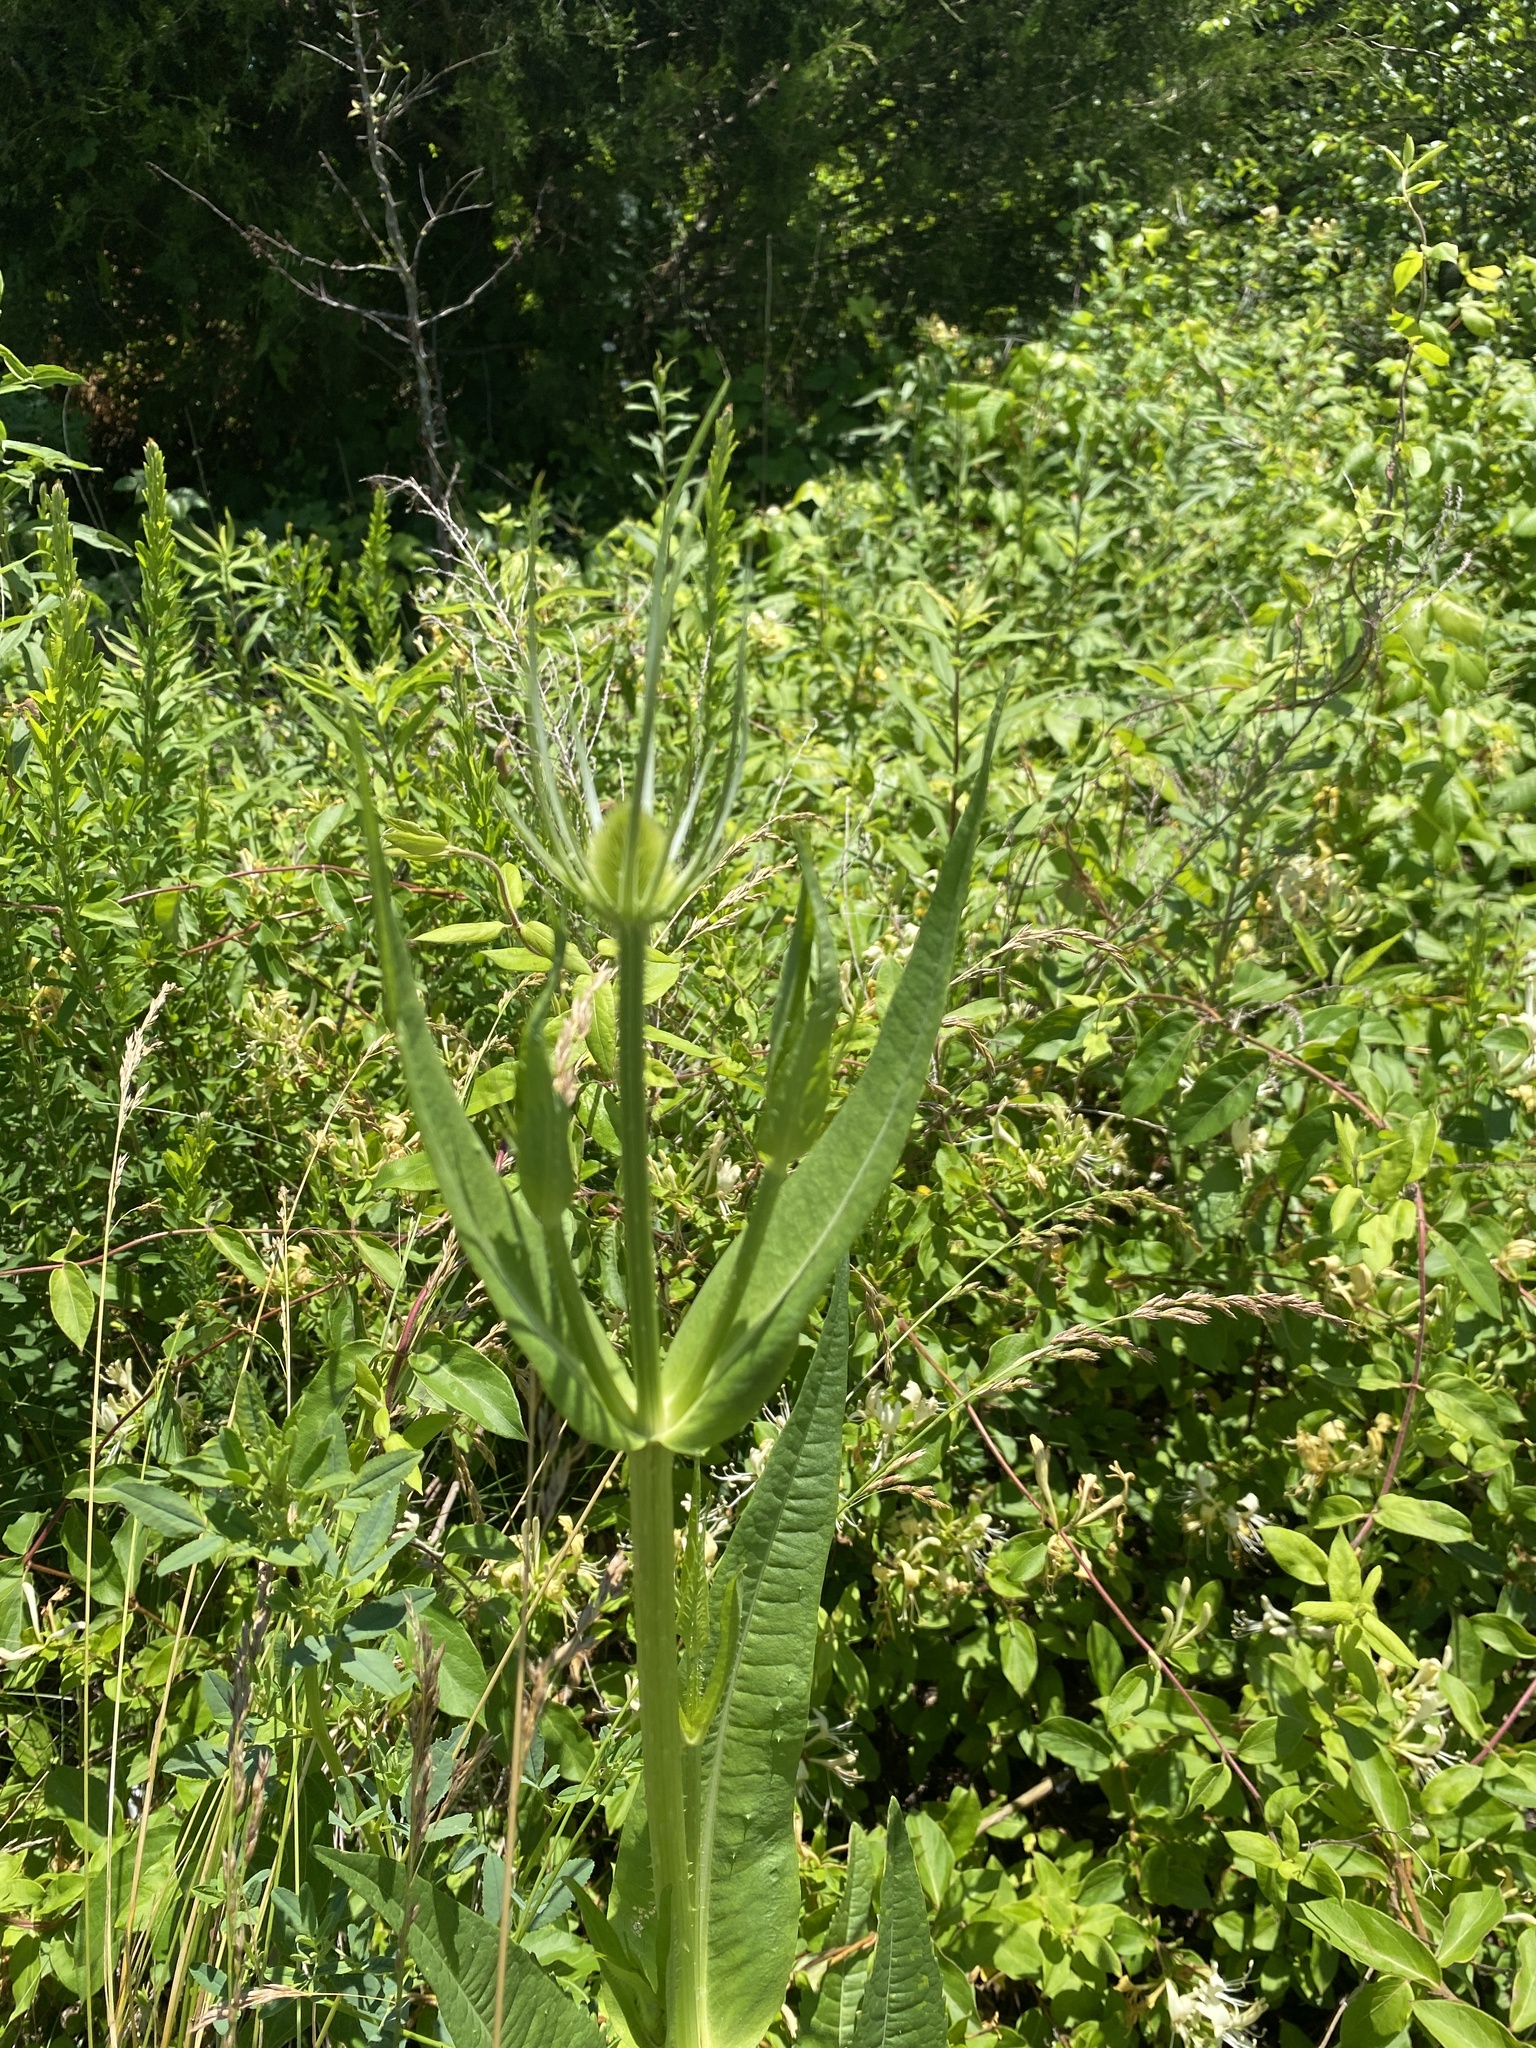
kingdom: Plantae
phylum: Tracheophyta
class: Magnoliopsida
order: Dipsacales
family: Caprifoliaceae
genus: Dipsacus
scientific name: Dipsacus fullonum
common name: Teasel
